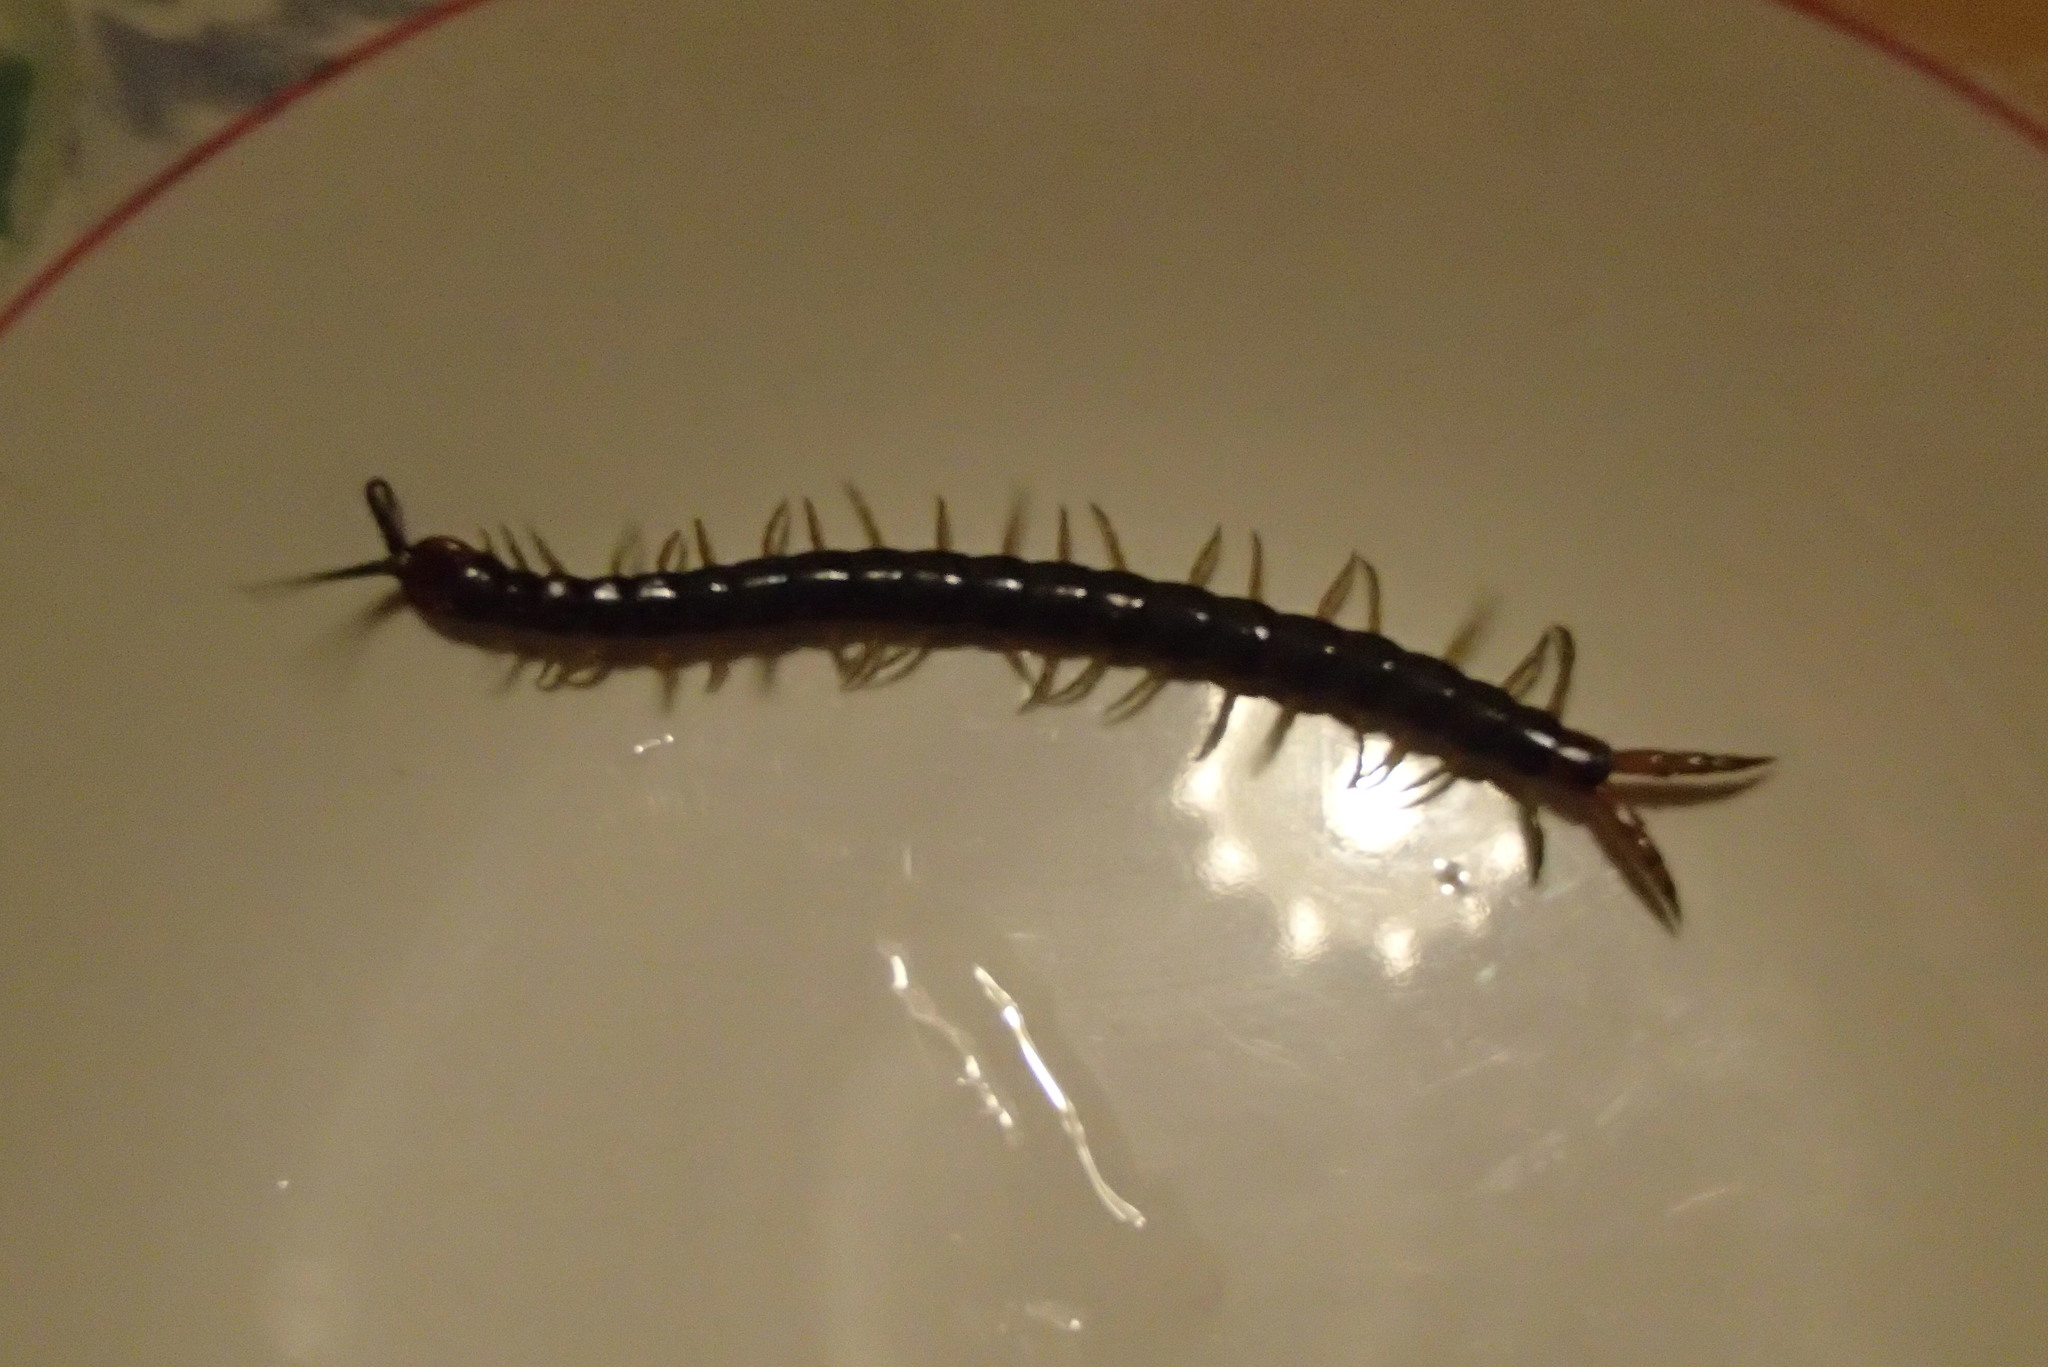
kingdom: Animalia
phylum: Arthropoda
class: Chilopoda
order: Scolopendromorpha
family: Scolopendridae
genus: Cormocephalus
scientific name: Cormocephalus westwoodi
